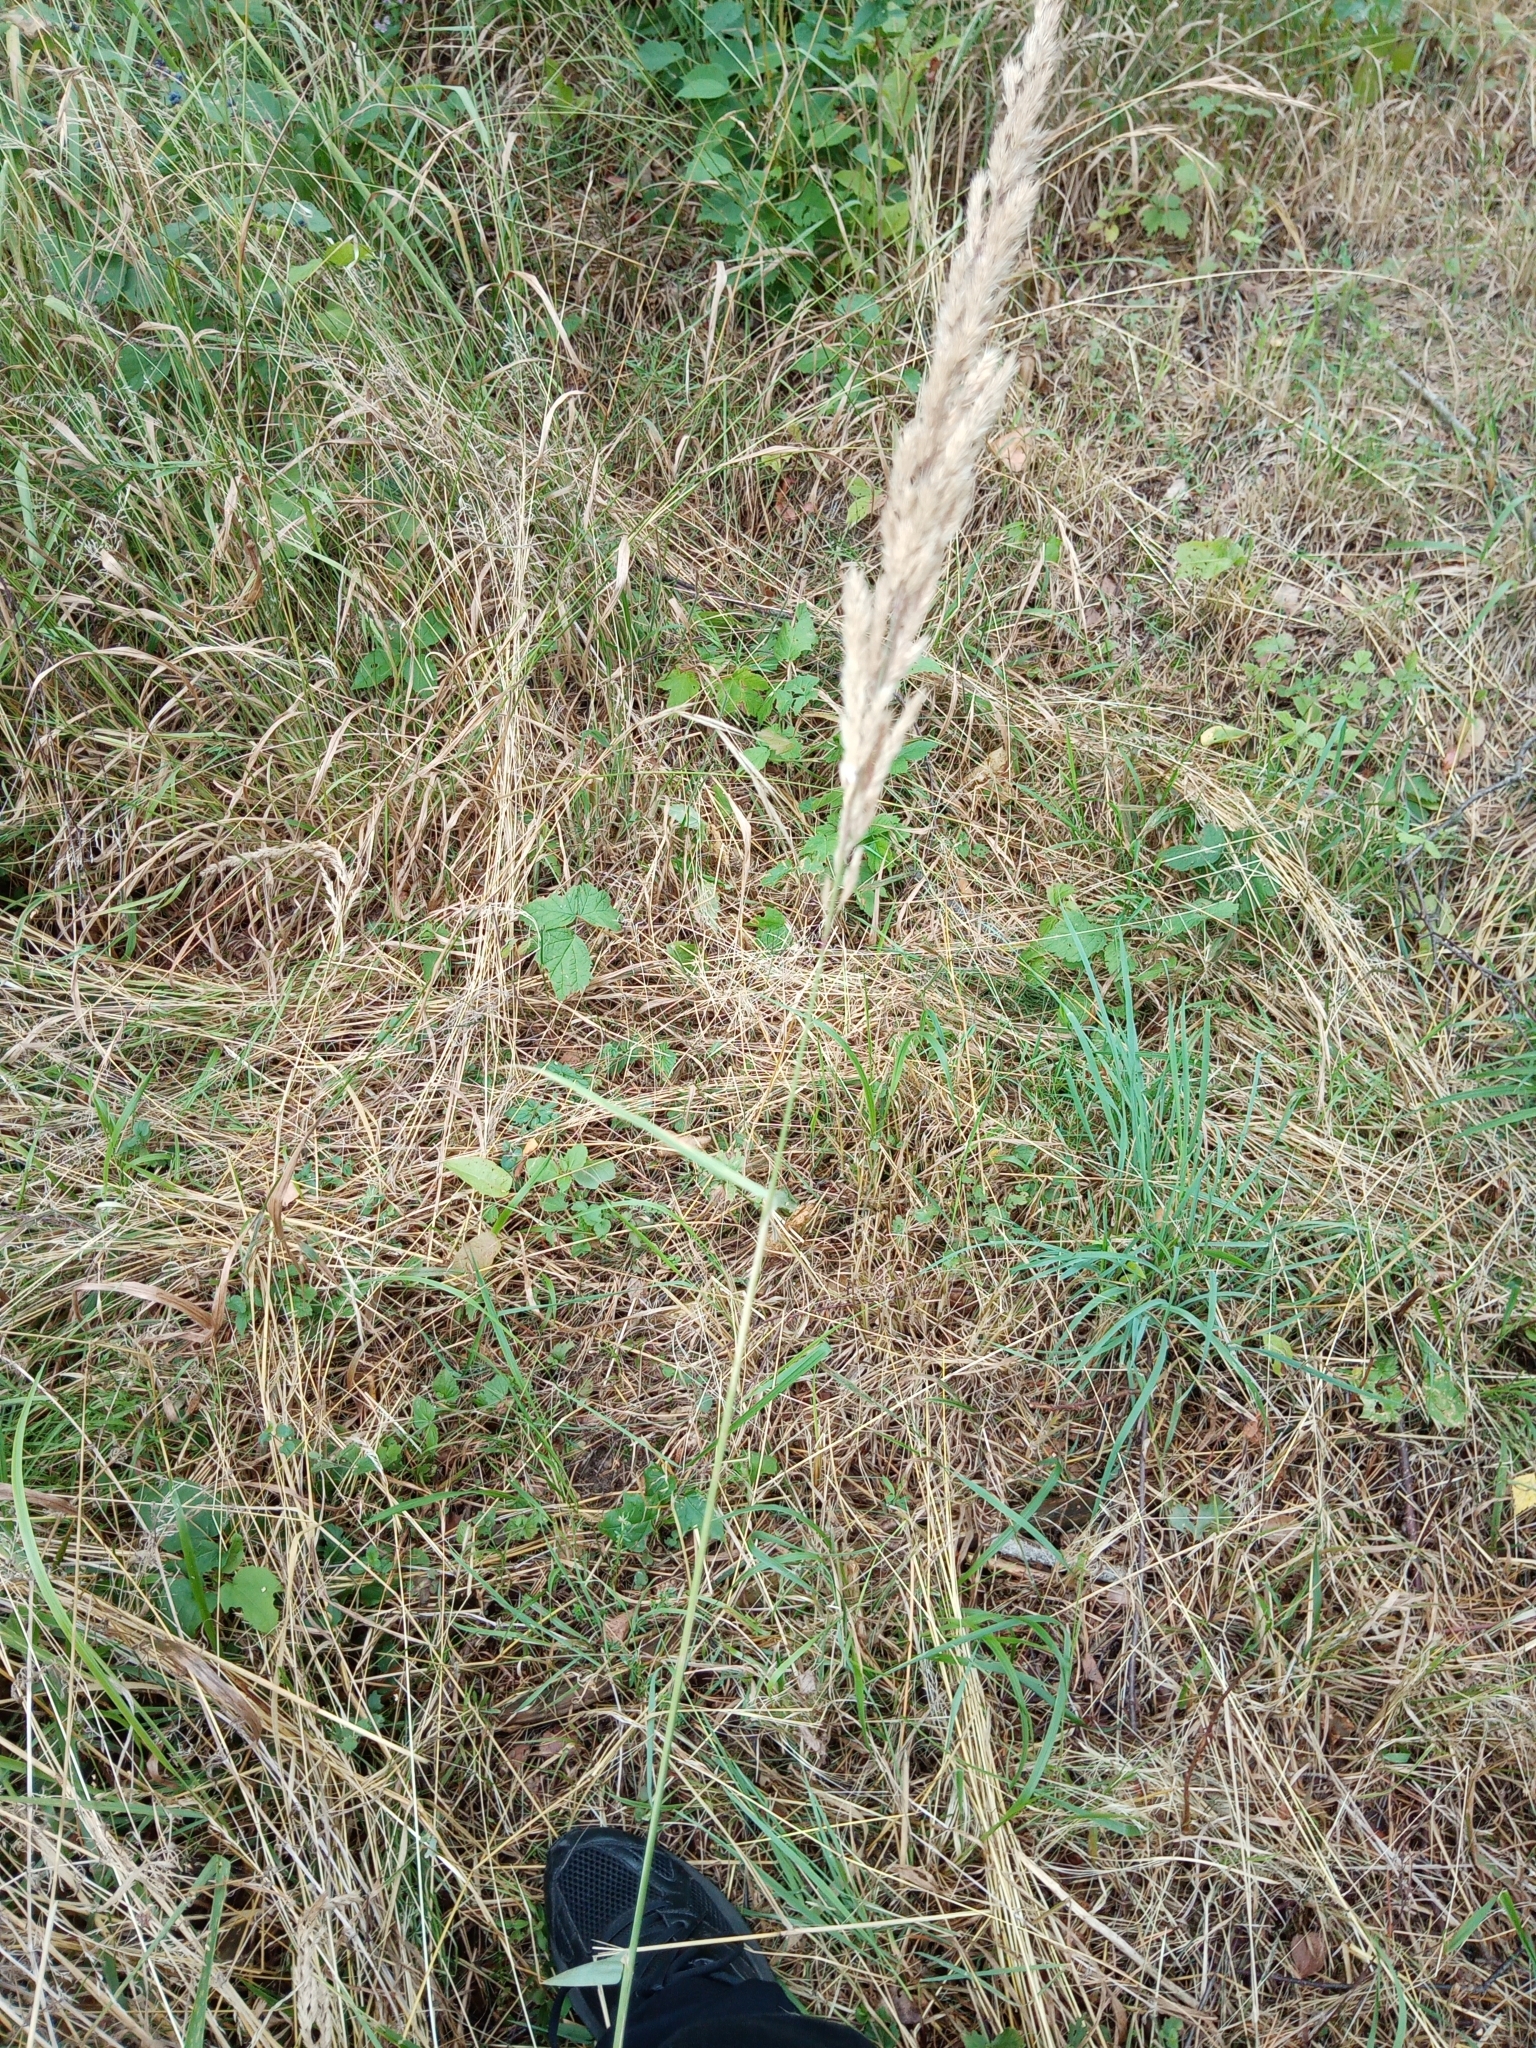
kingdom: Plantae
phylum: Tracheophyta
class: Liliopsida
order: Poales
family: Poaceae
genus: Calamagrostis
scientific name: Calamagrostis arundinacea
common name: Metskastik
